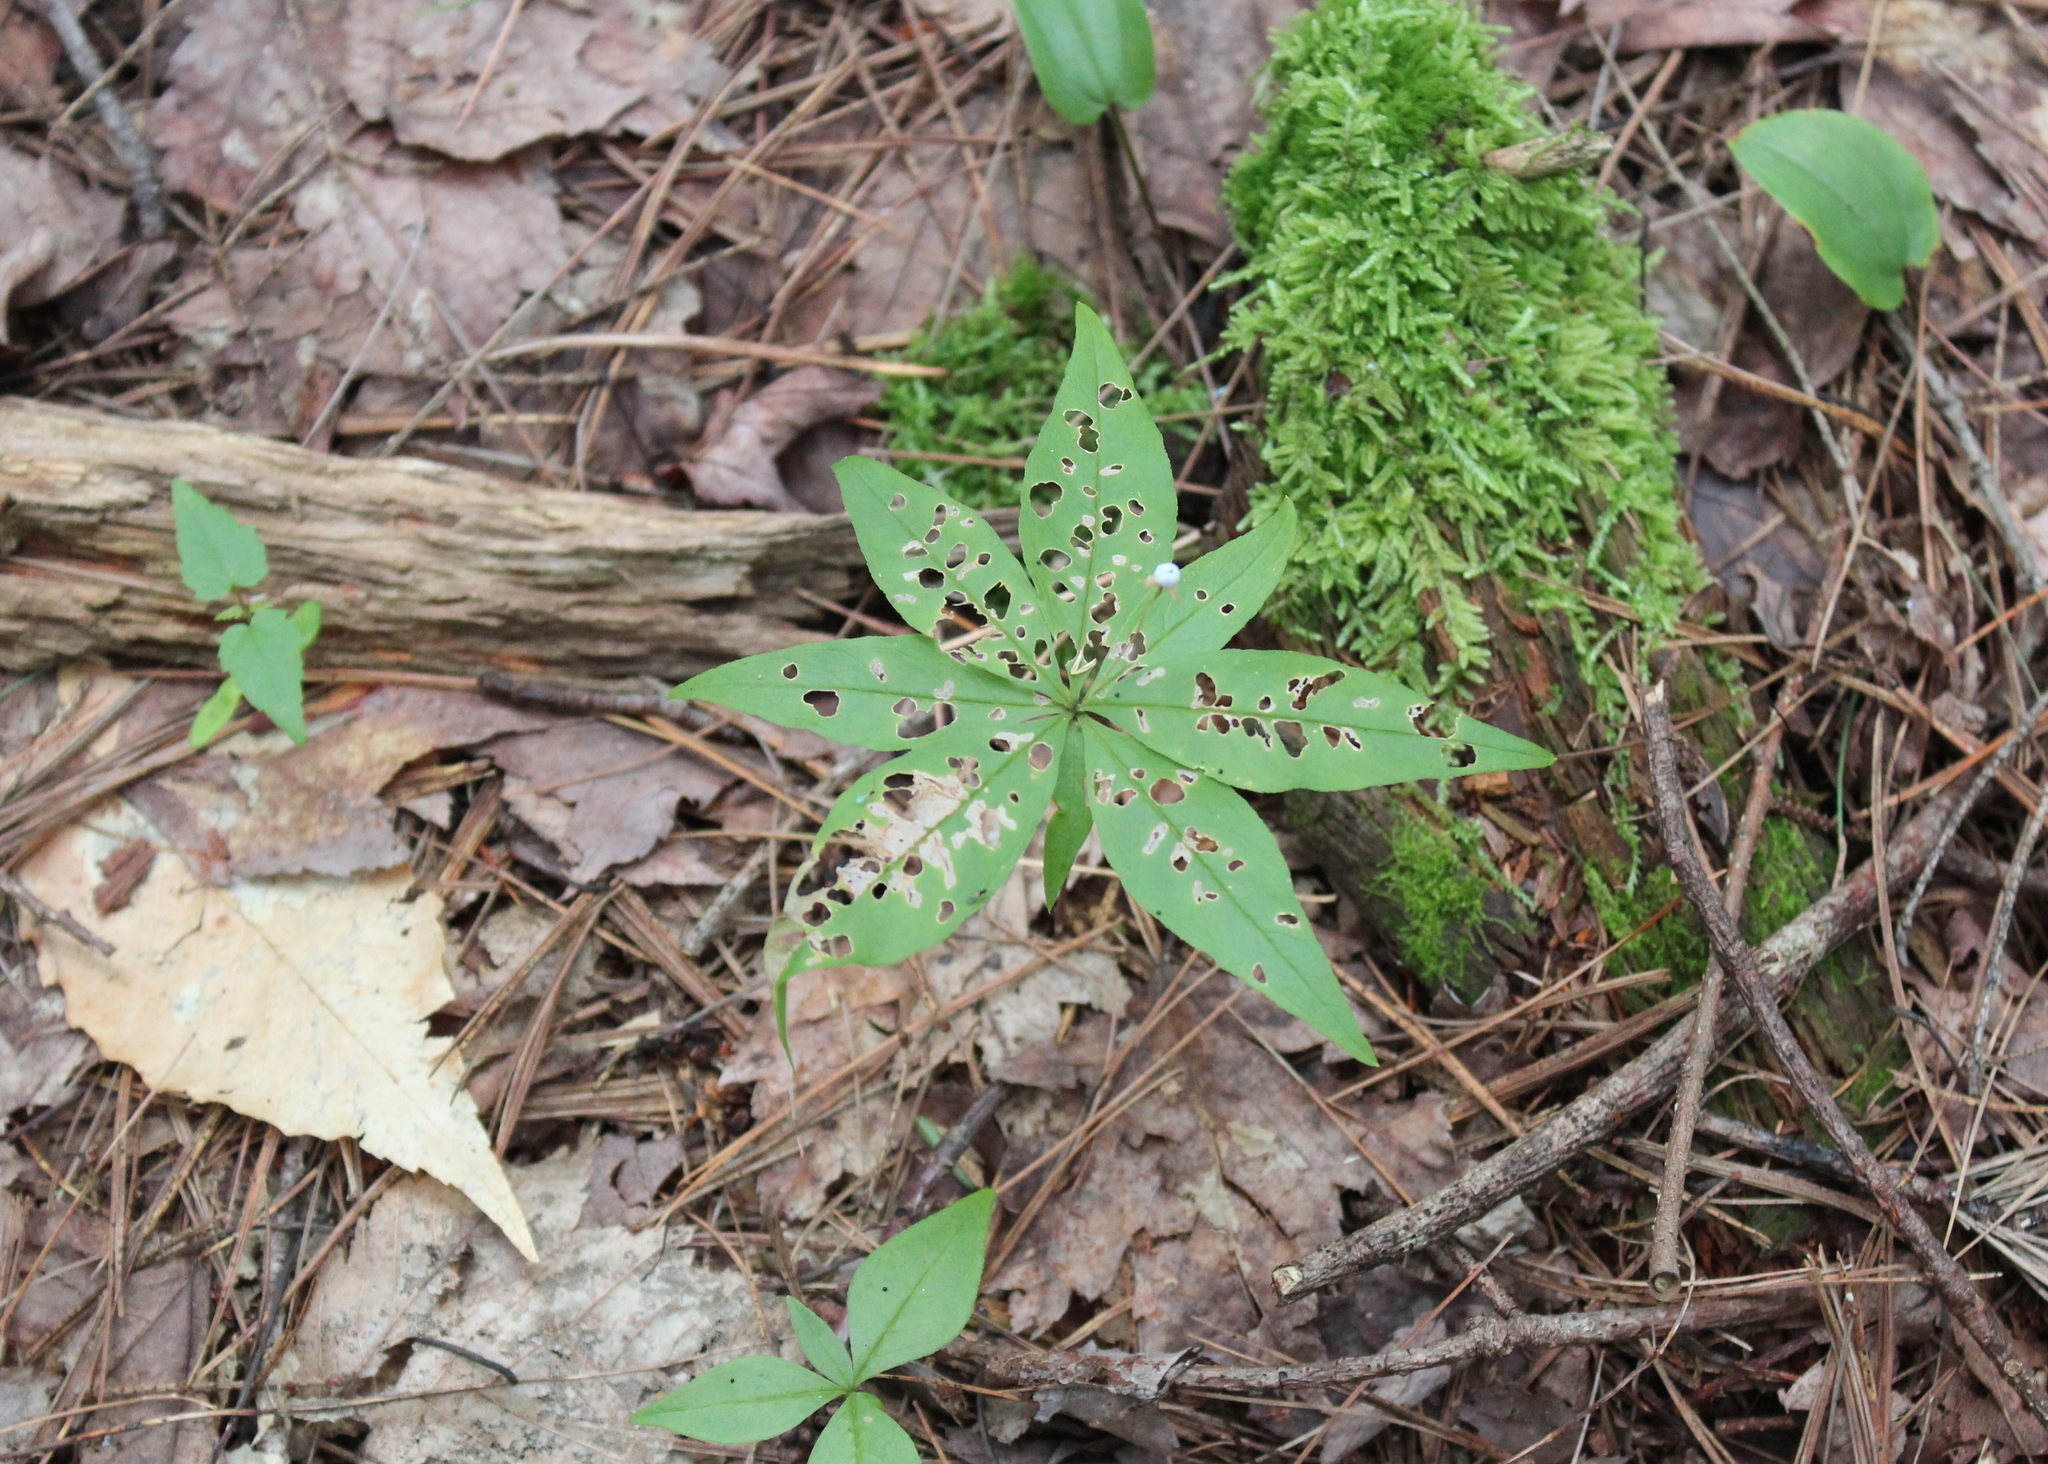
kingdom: Plantae
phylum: Tracheophyta
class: Magnoliopsida
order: Ericales
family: Primulaceae
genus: Lysimachia
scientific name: Lysimachia borealis
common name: American starflower
